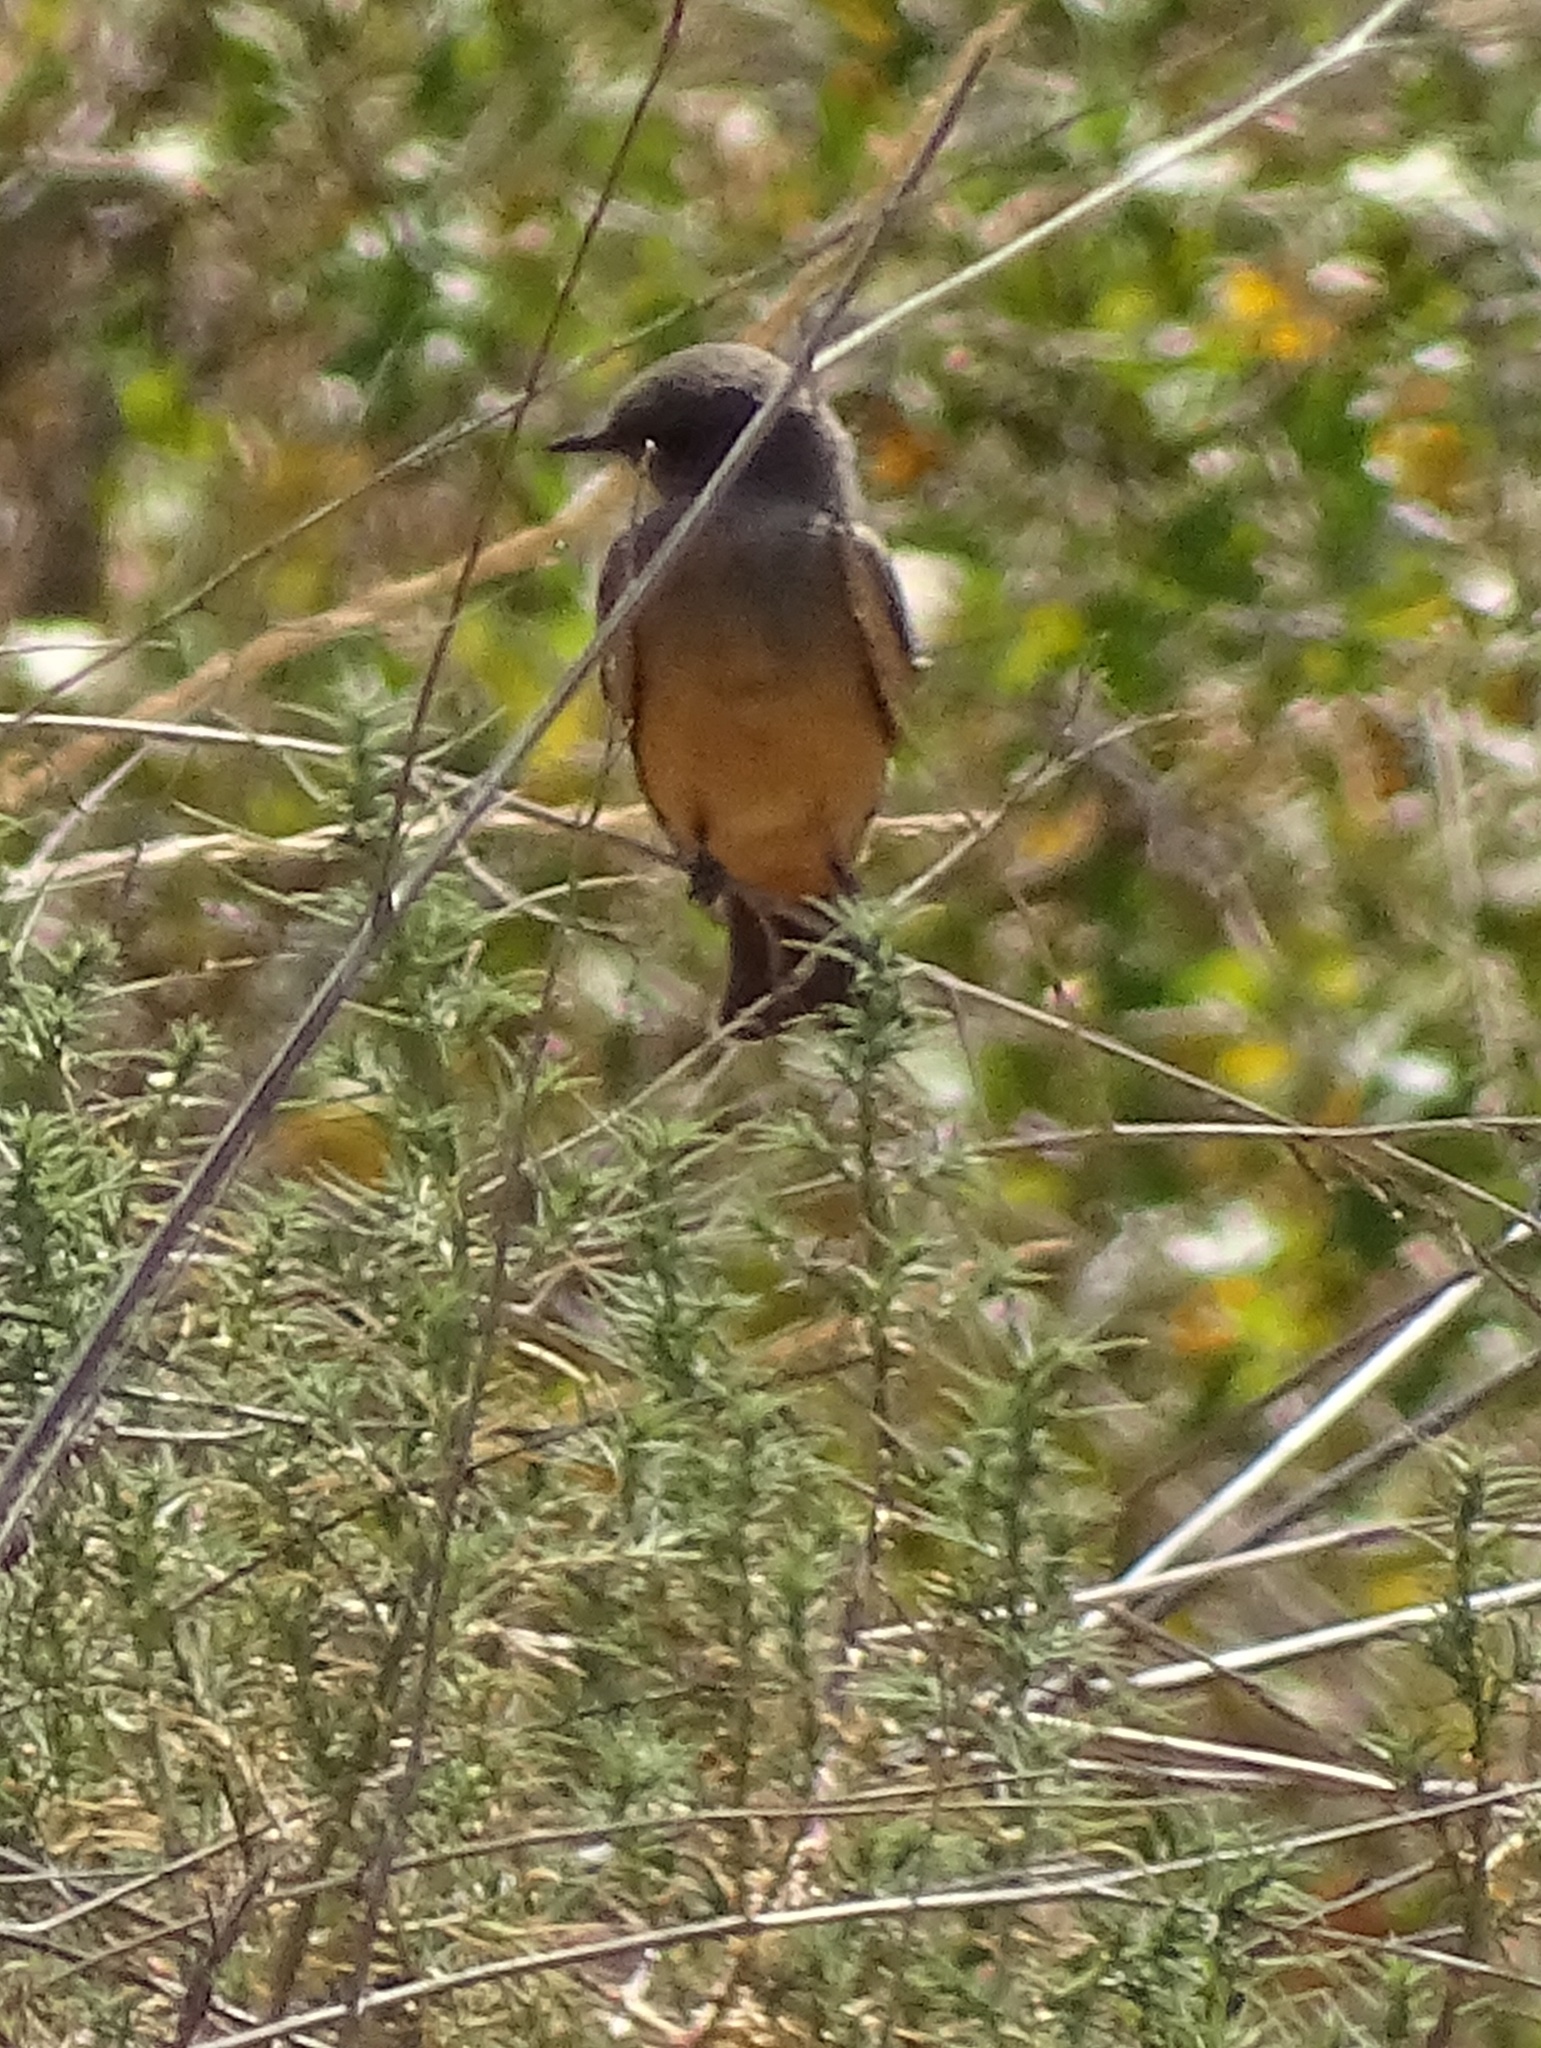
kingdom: Animalia
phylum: Chordata
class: Aves
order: Passeriformes
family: Tyrannidae
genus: Sayornis
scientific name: Sayornis saya
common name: Say's phoebe
